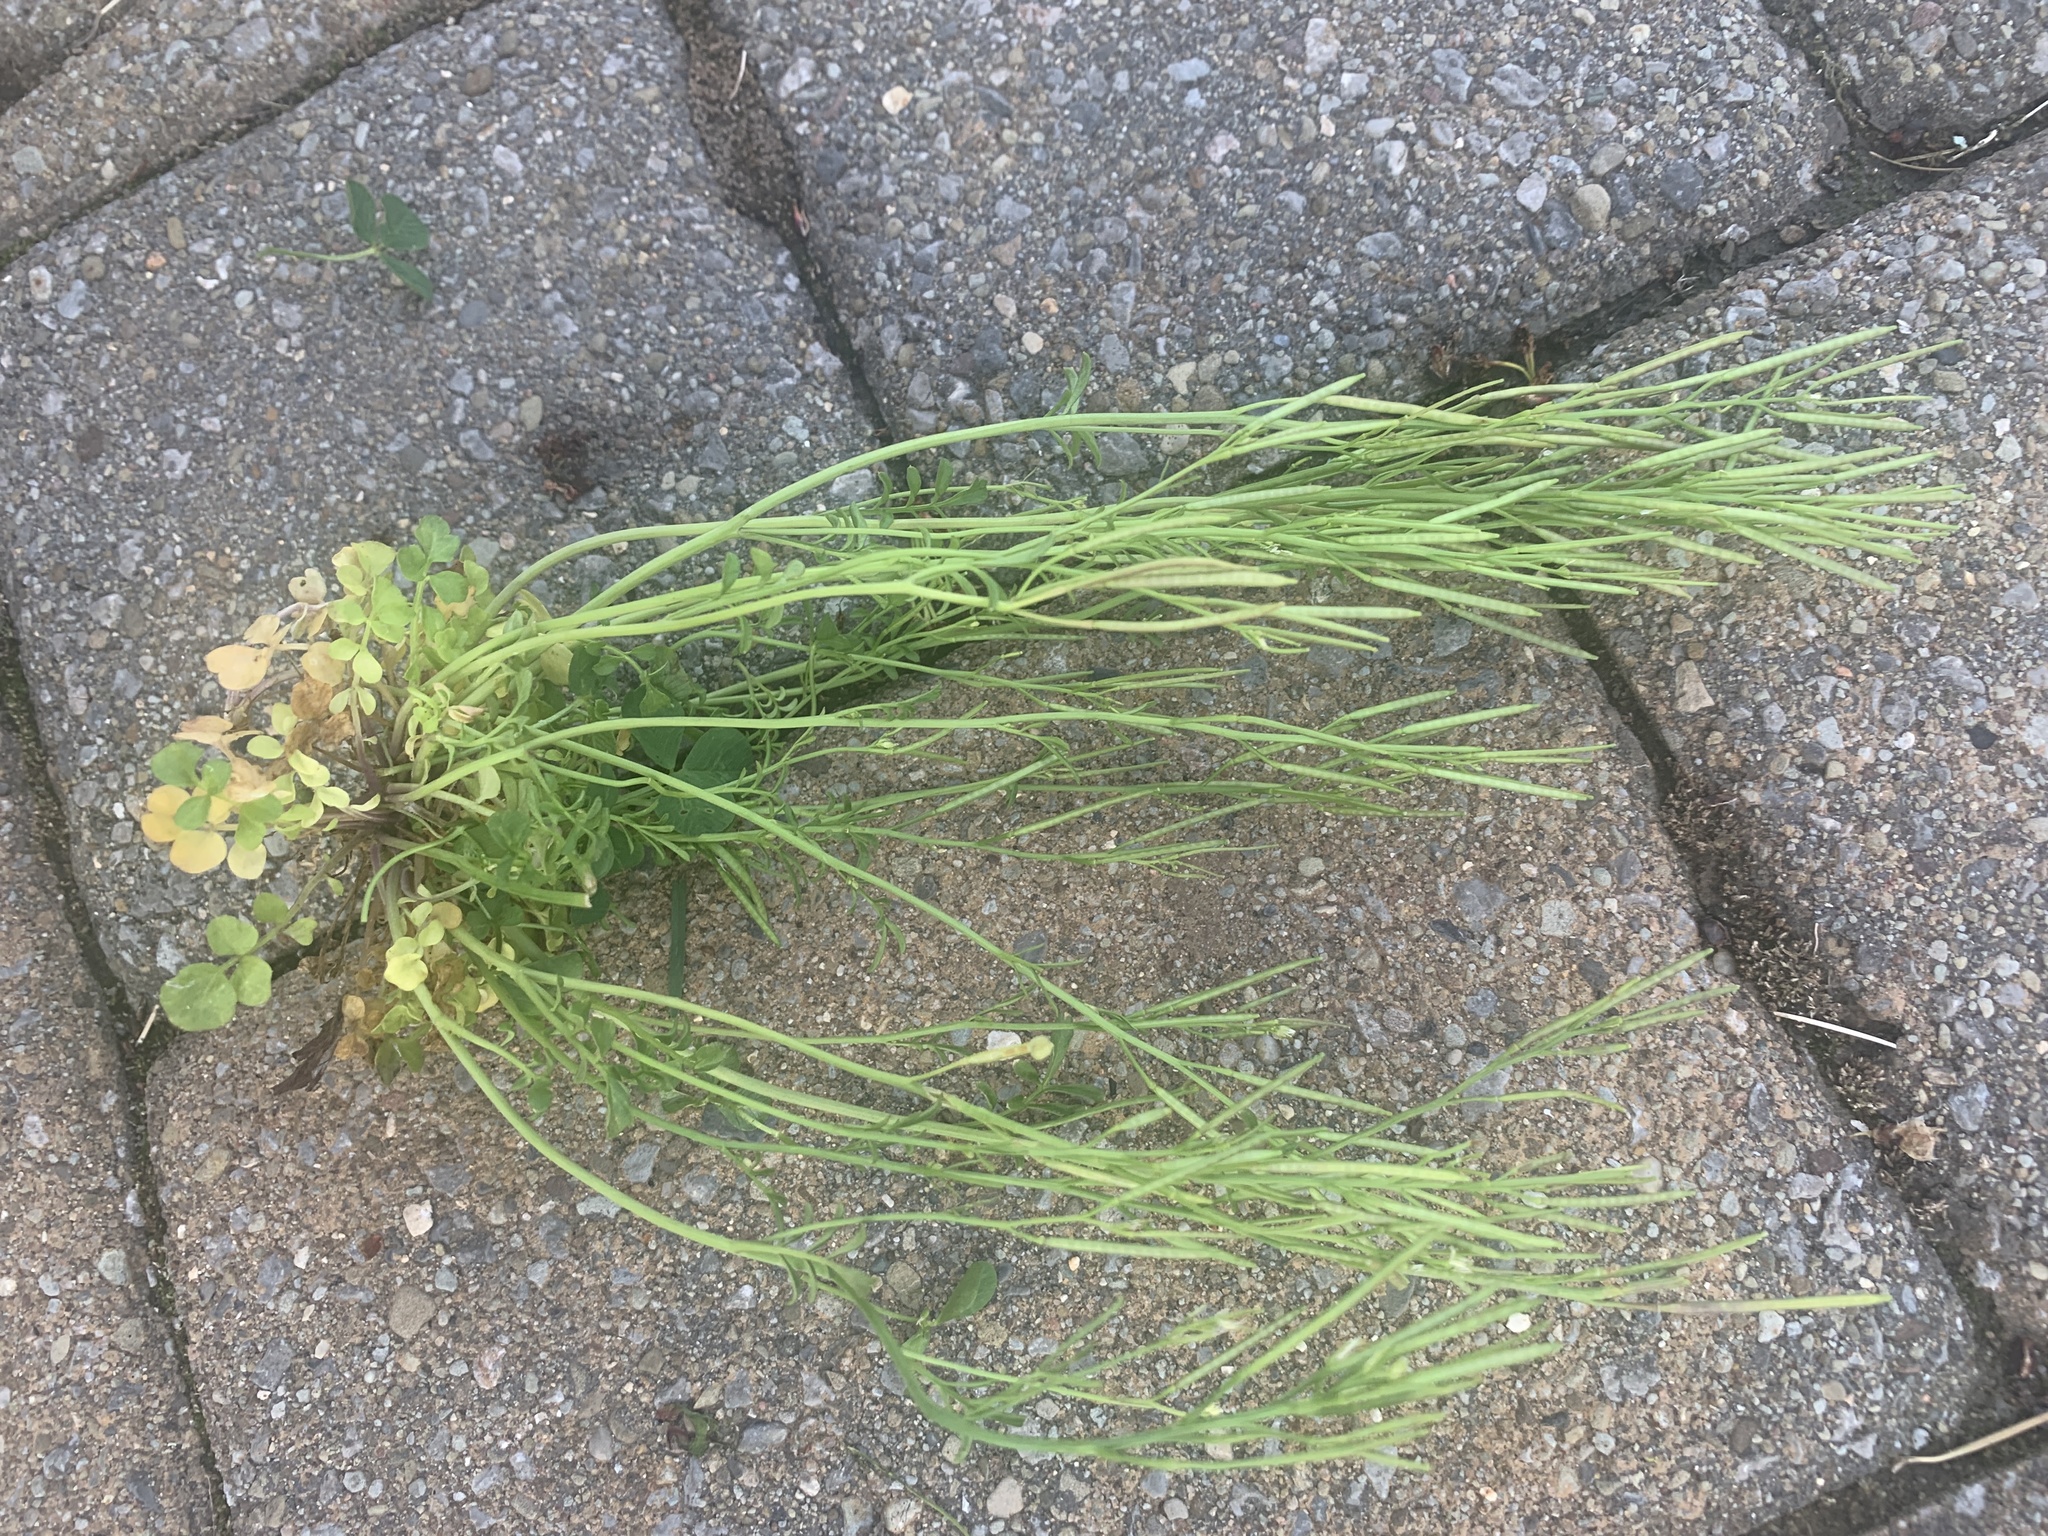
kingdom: Plantae
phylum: Tracheophyta
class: Magnoliopsida
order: Brassicales
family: Brassicaceae
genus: Cardamine
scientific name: Cardamine hirsuta
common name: Hairy bittercress
